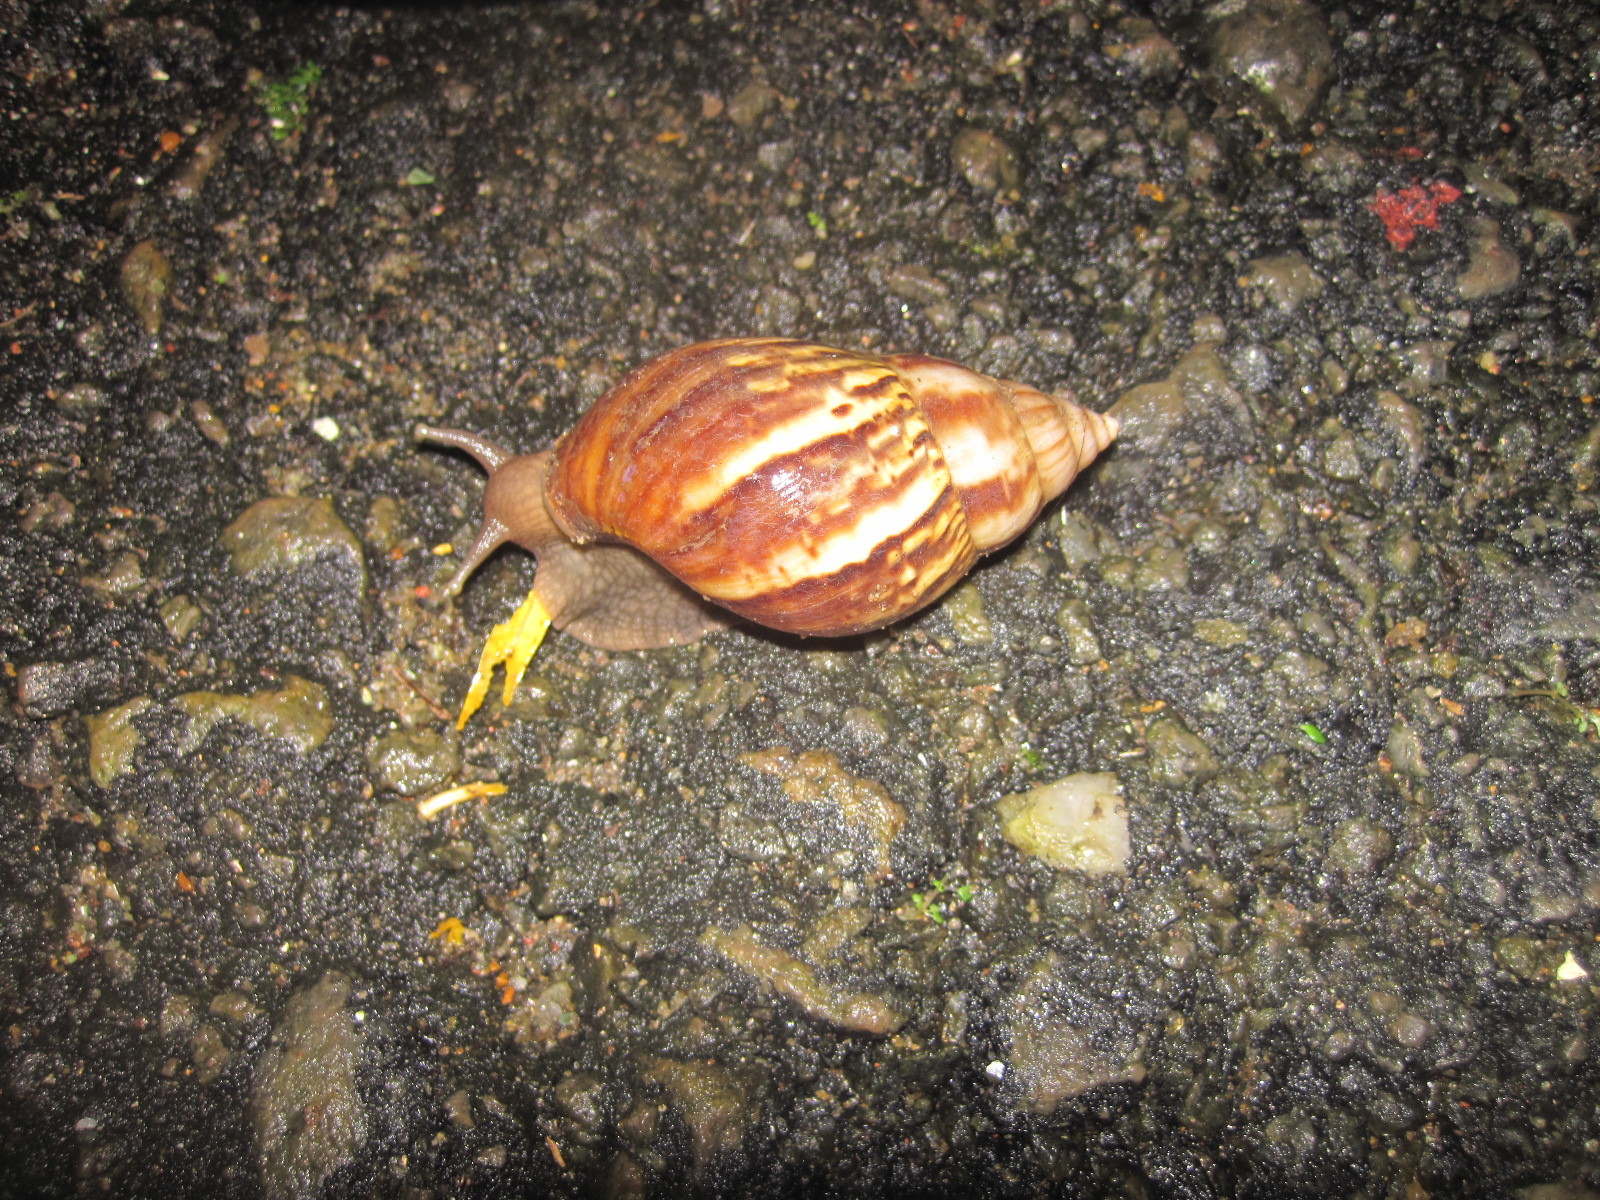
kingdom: Animalia
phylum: Mollusca
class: Gastropoda
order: Stylommatophora
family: Achatinidae
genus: Lissachatina
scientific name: Lissachatina fulica
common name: Giant african snail
